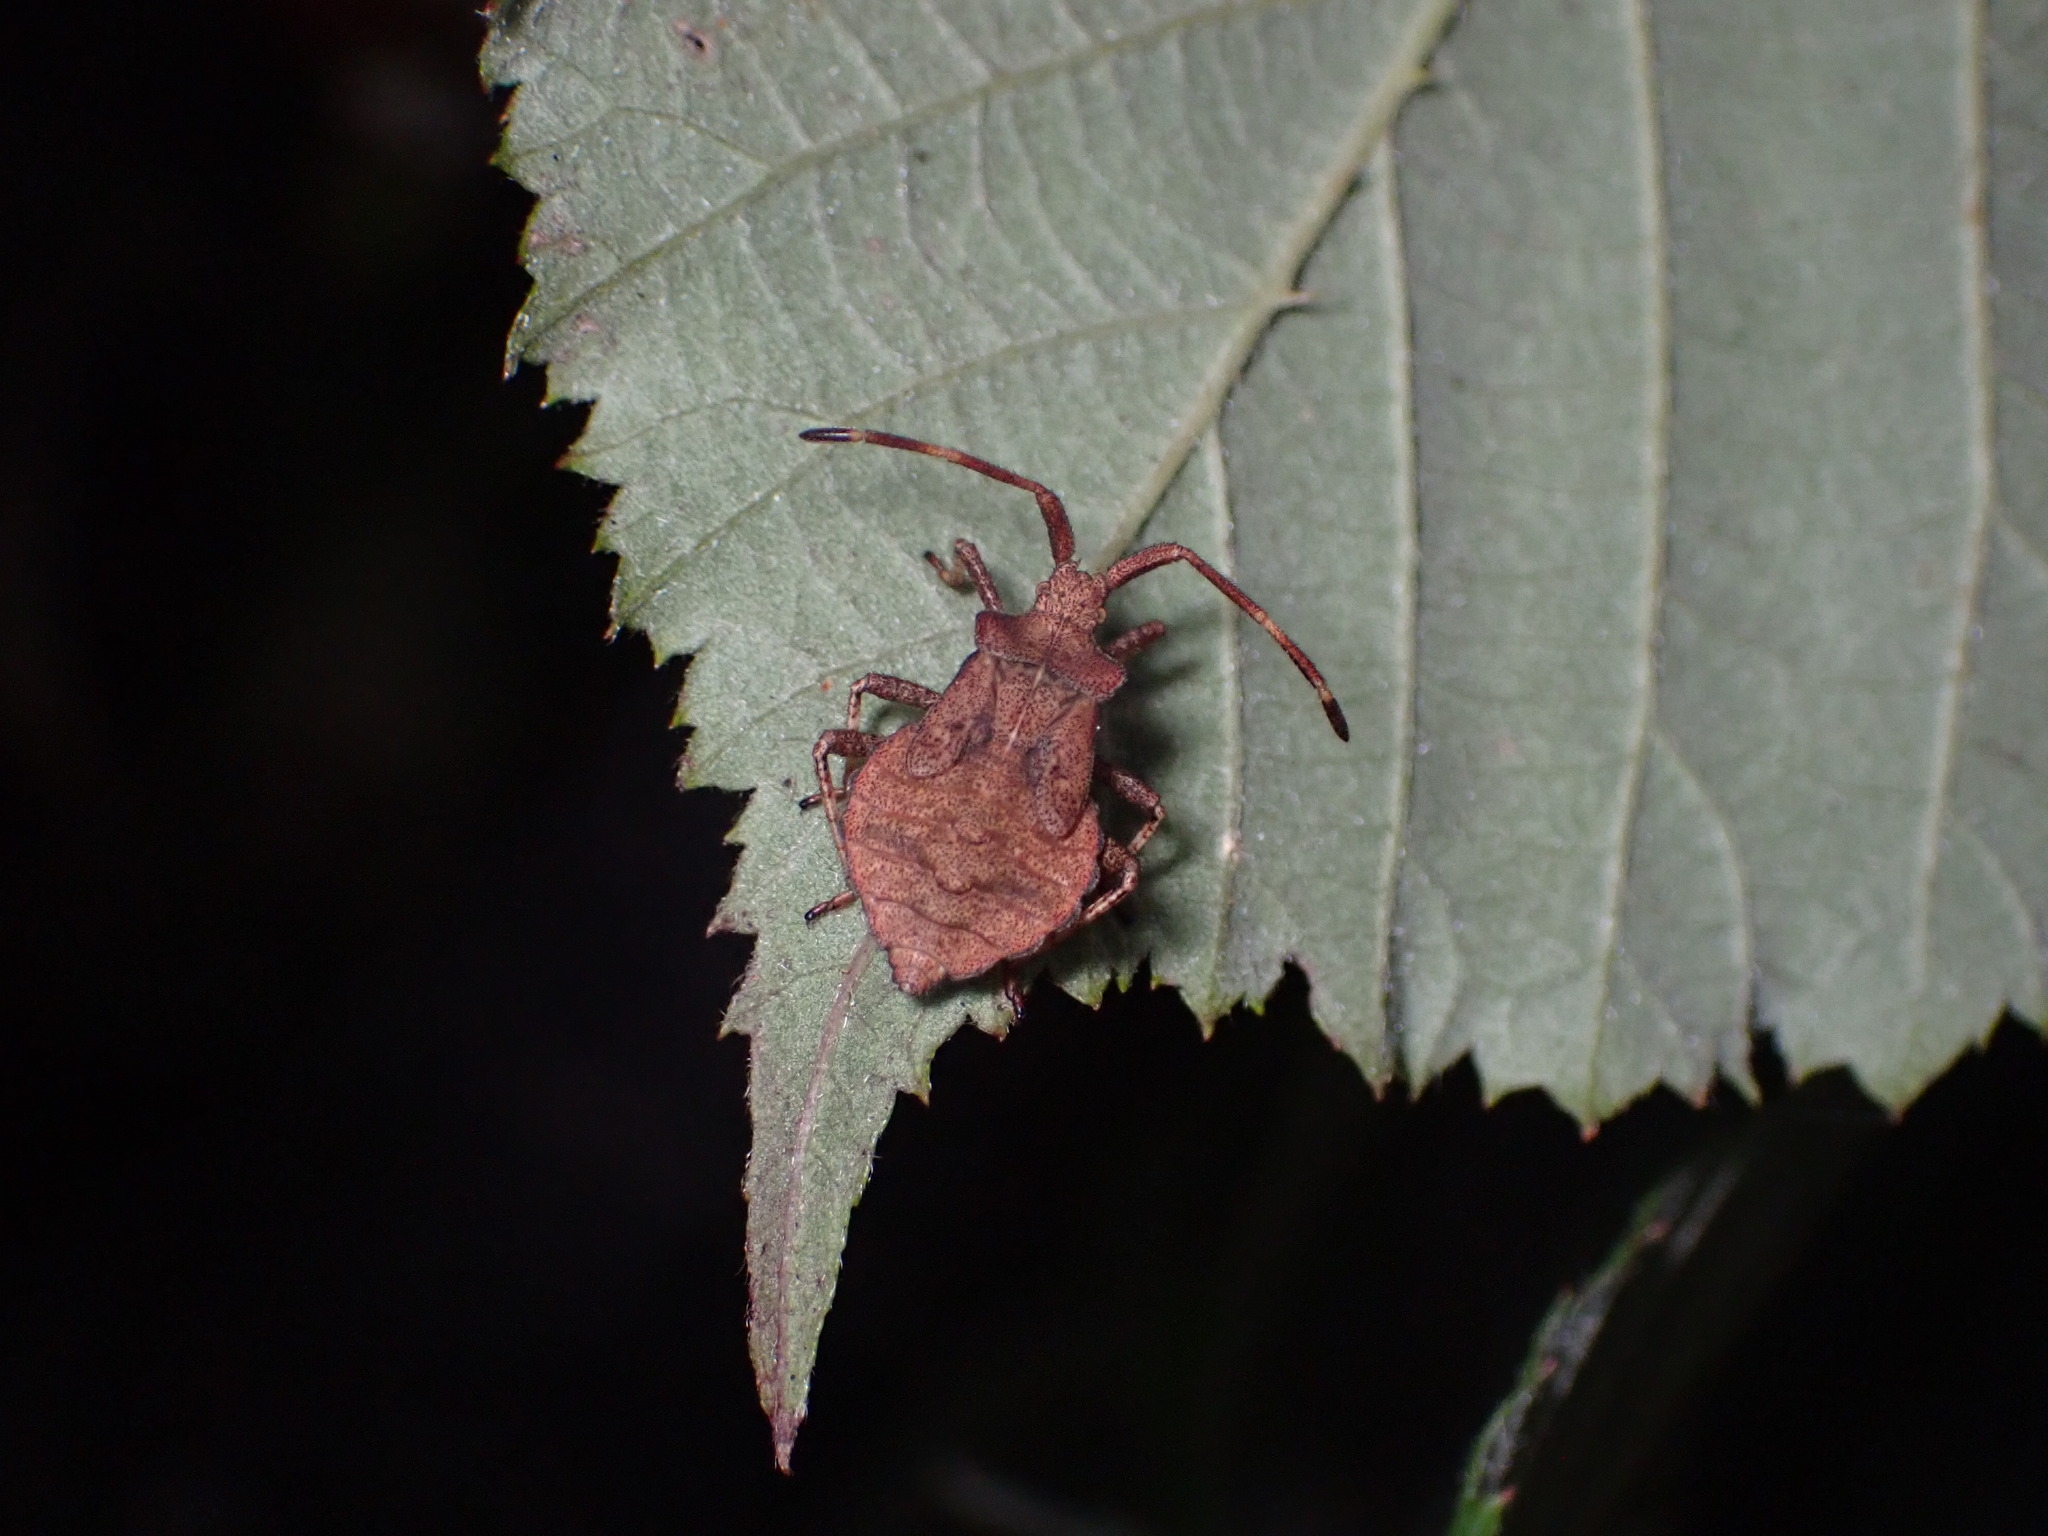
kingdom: Animalia
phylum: Arthropoda
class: Insecta
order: Hemiptera
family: Coreidae
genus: Coreus
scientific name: Coreus marginatus
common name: Dock bug
